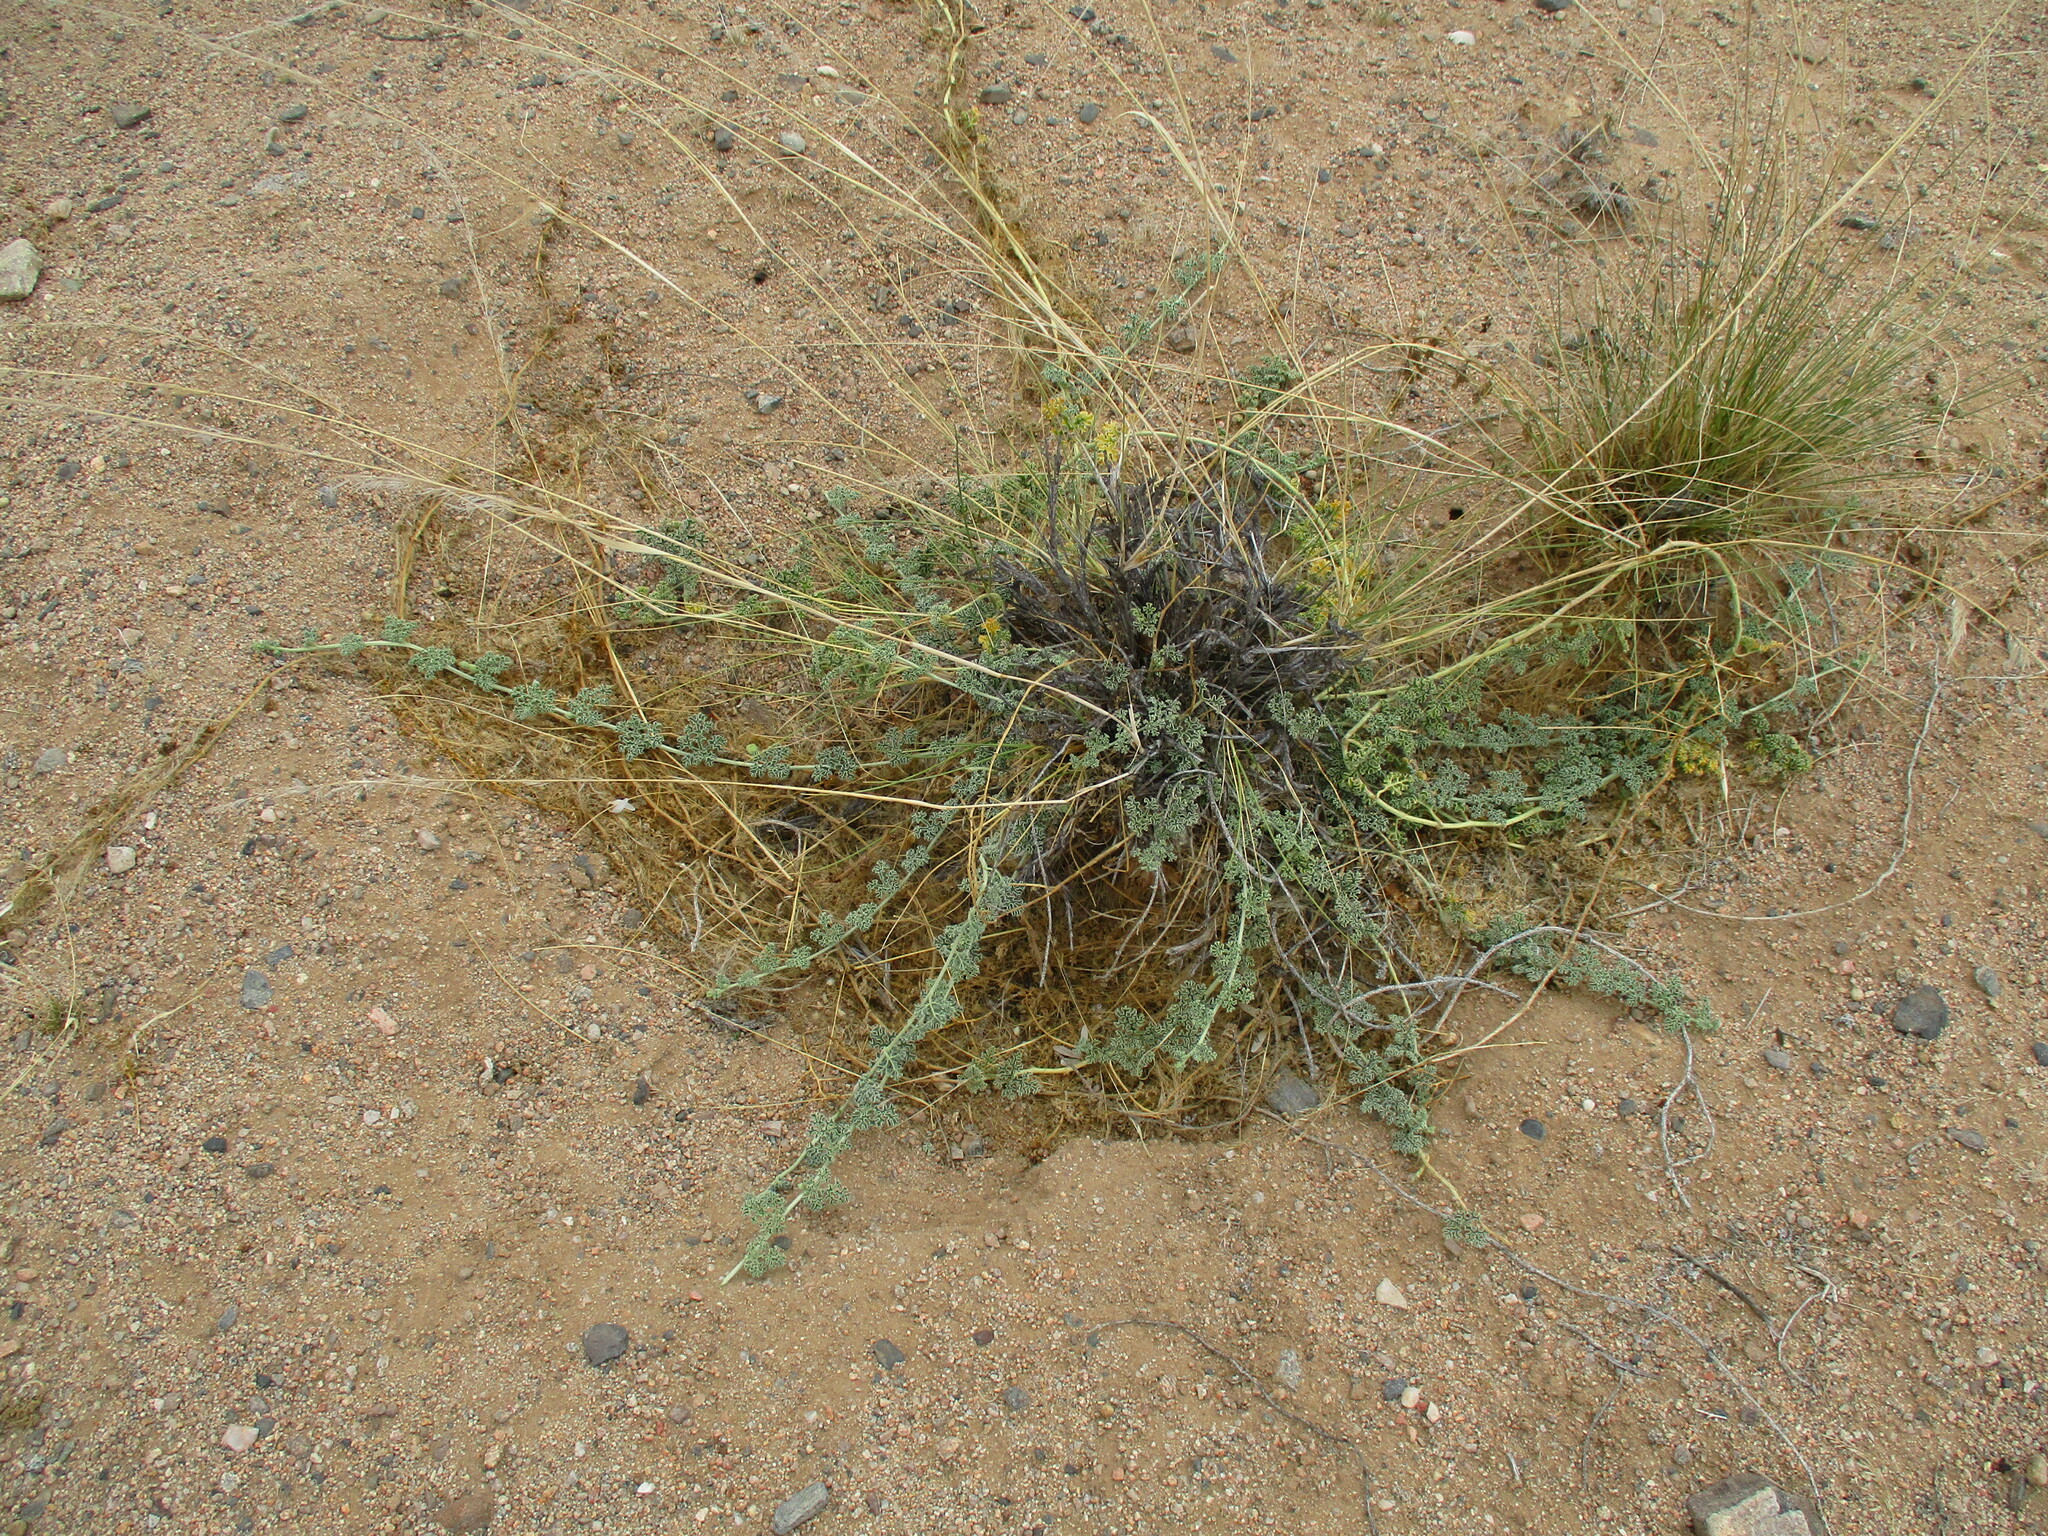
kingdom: Plantae
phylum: Tracheophyta
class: Magnoliopsida
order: Cucurbitales
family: Cucurbitaceae
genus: Citrullus
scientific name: Citrullus ecirrhosus
